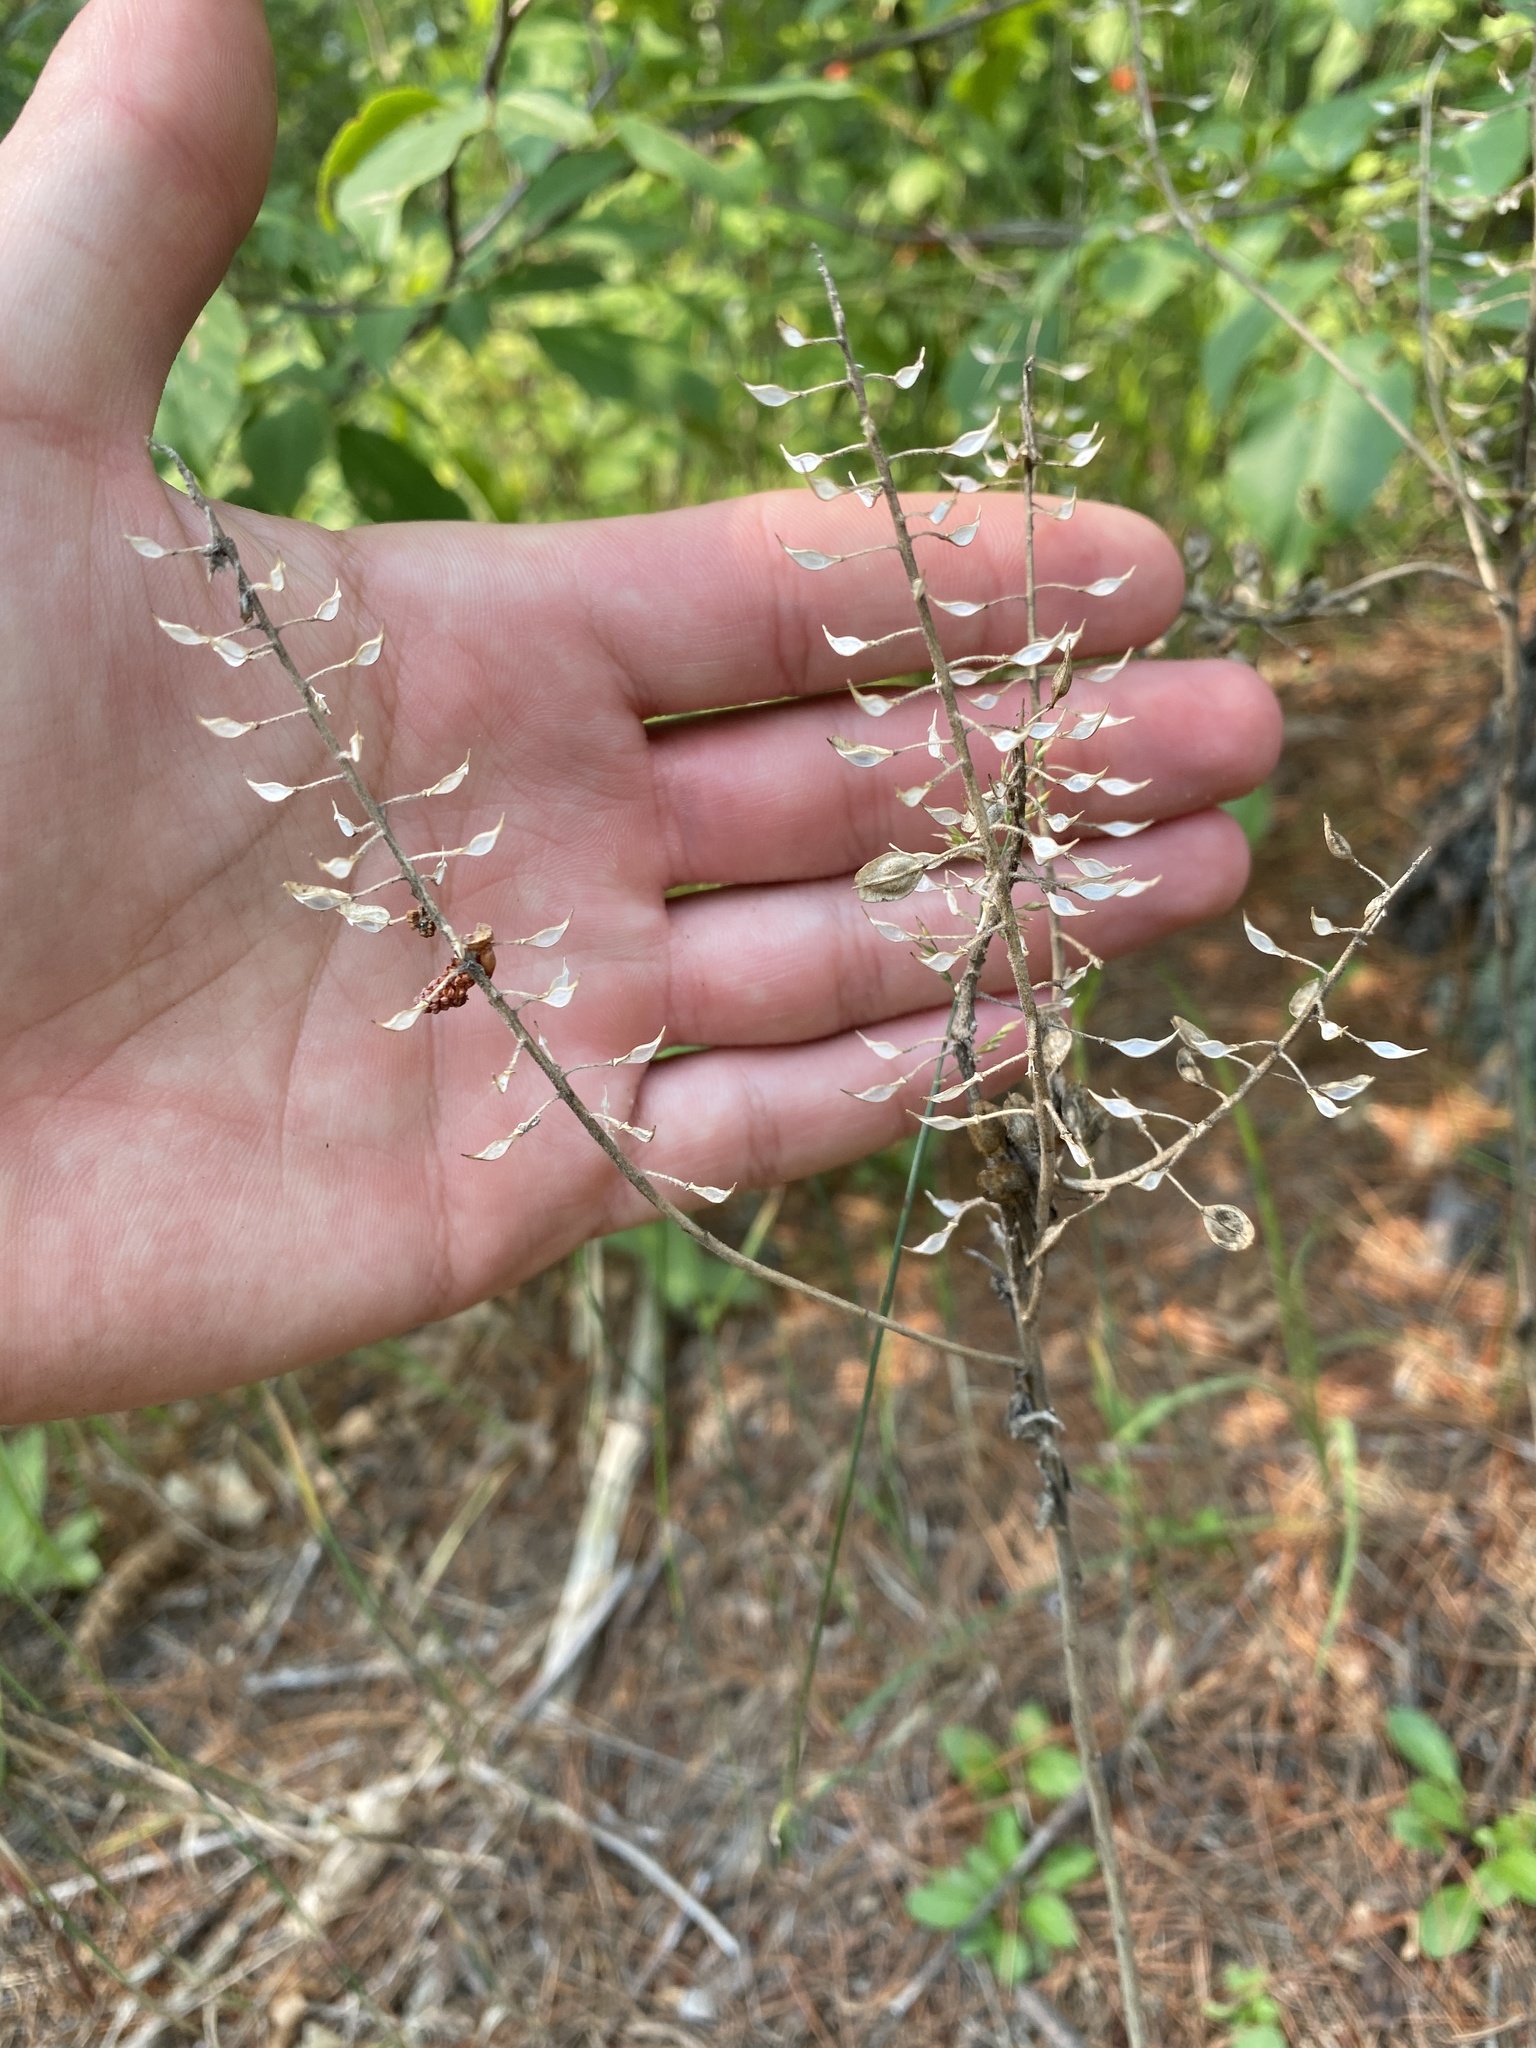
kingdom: Plantae
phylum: Tracheophyta
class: Magnoliopsida
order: Brassicales
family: Brassicaceae
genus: Lepidium
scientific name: Lepidium campestre
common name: Field pepperwort
